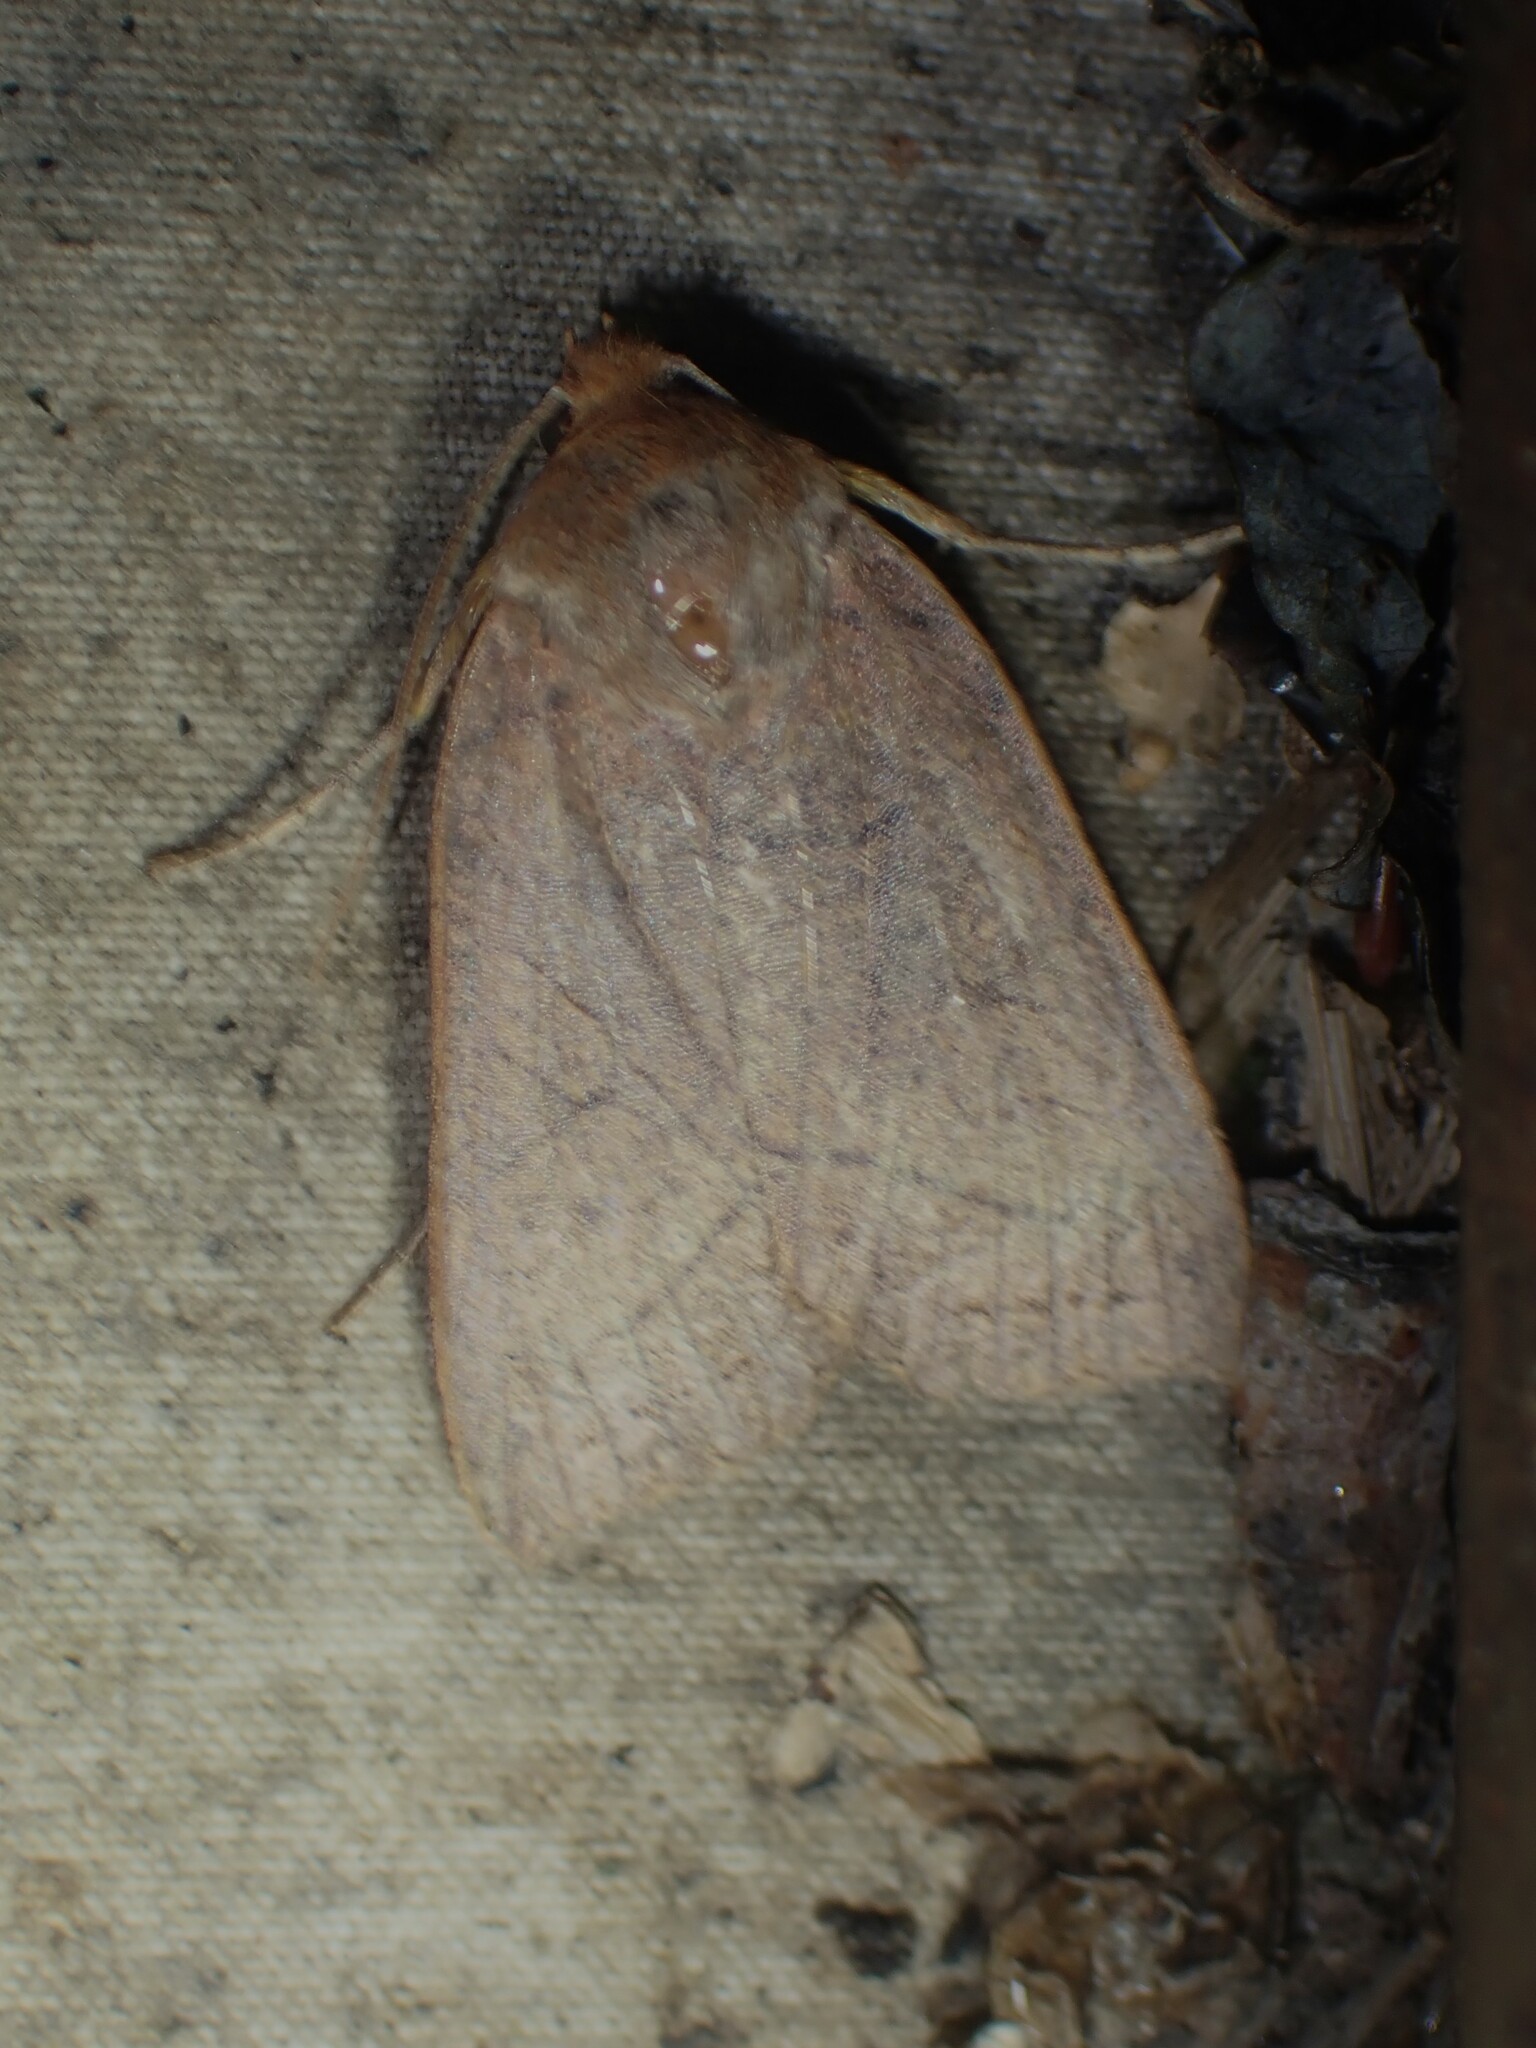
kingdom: Animalia
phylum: Arthropoda
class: Insecta
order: Lepidoptera
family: Noctuidae
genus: Metaxaglaea
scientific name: Metaxaglaea inulta
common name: Unsated sallow
